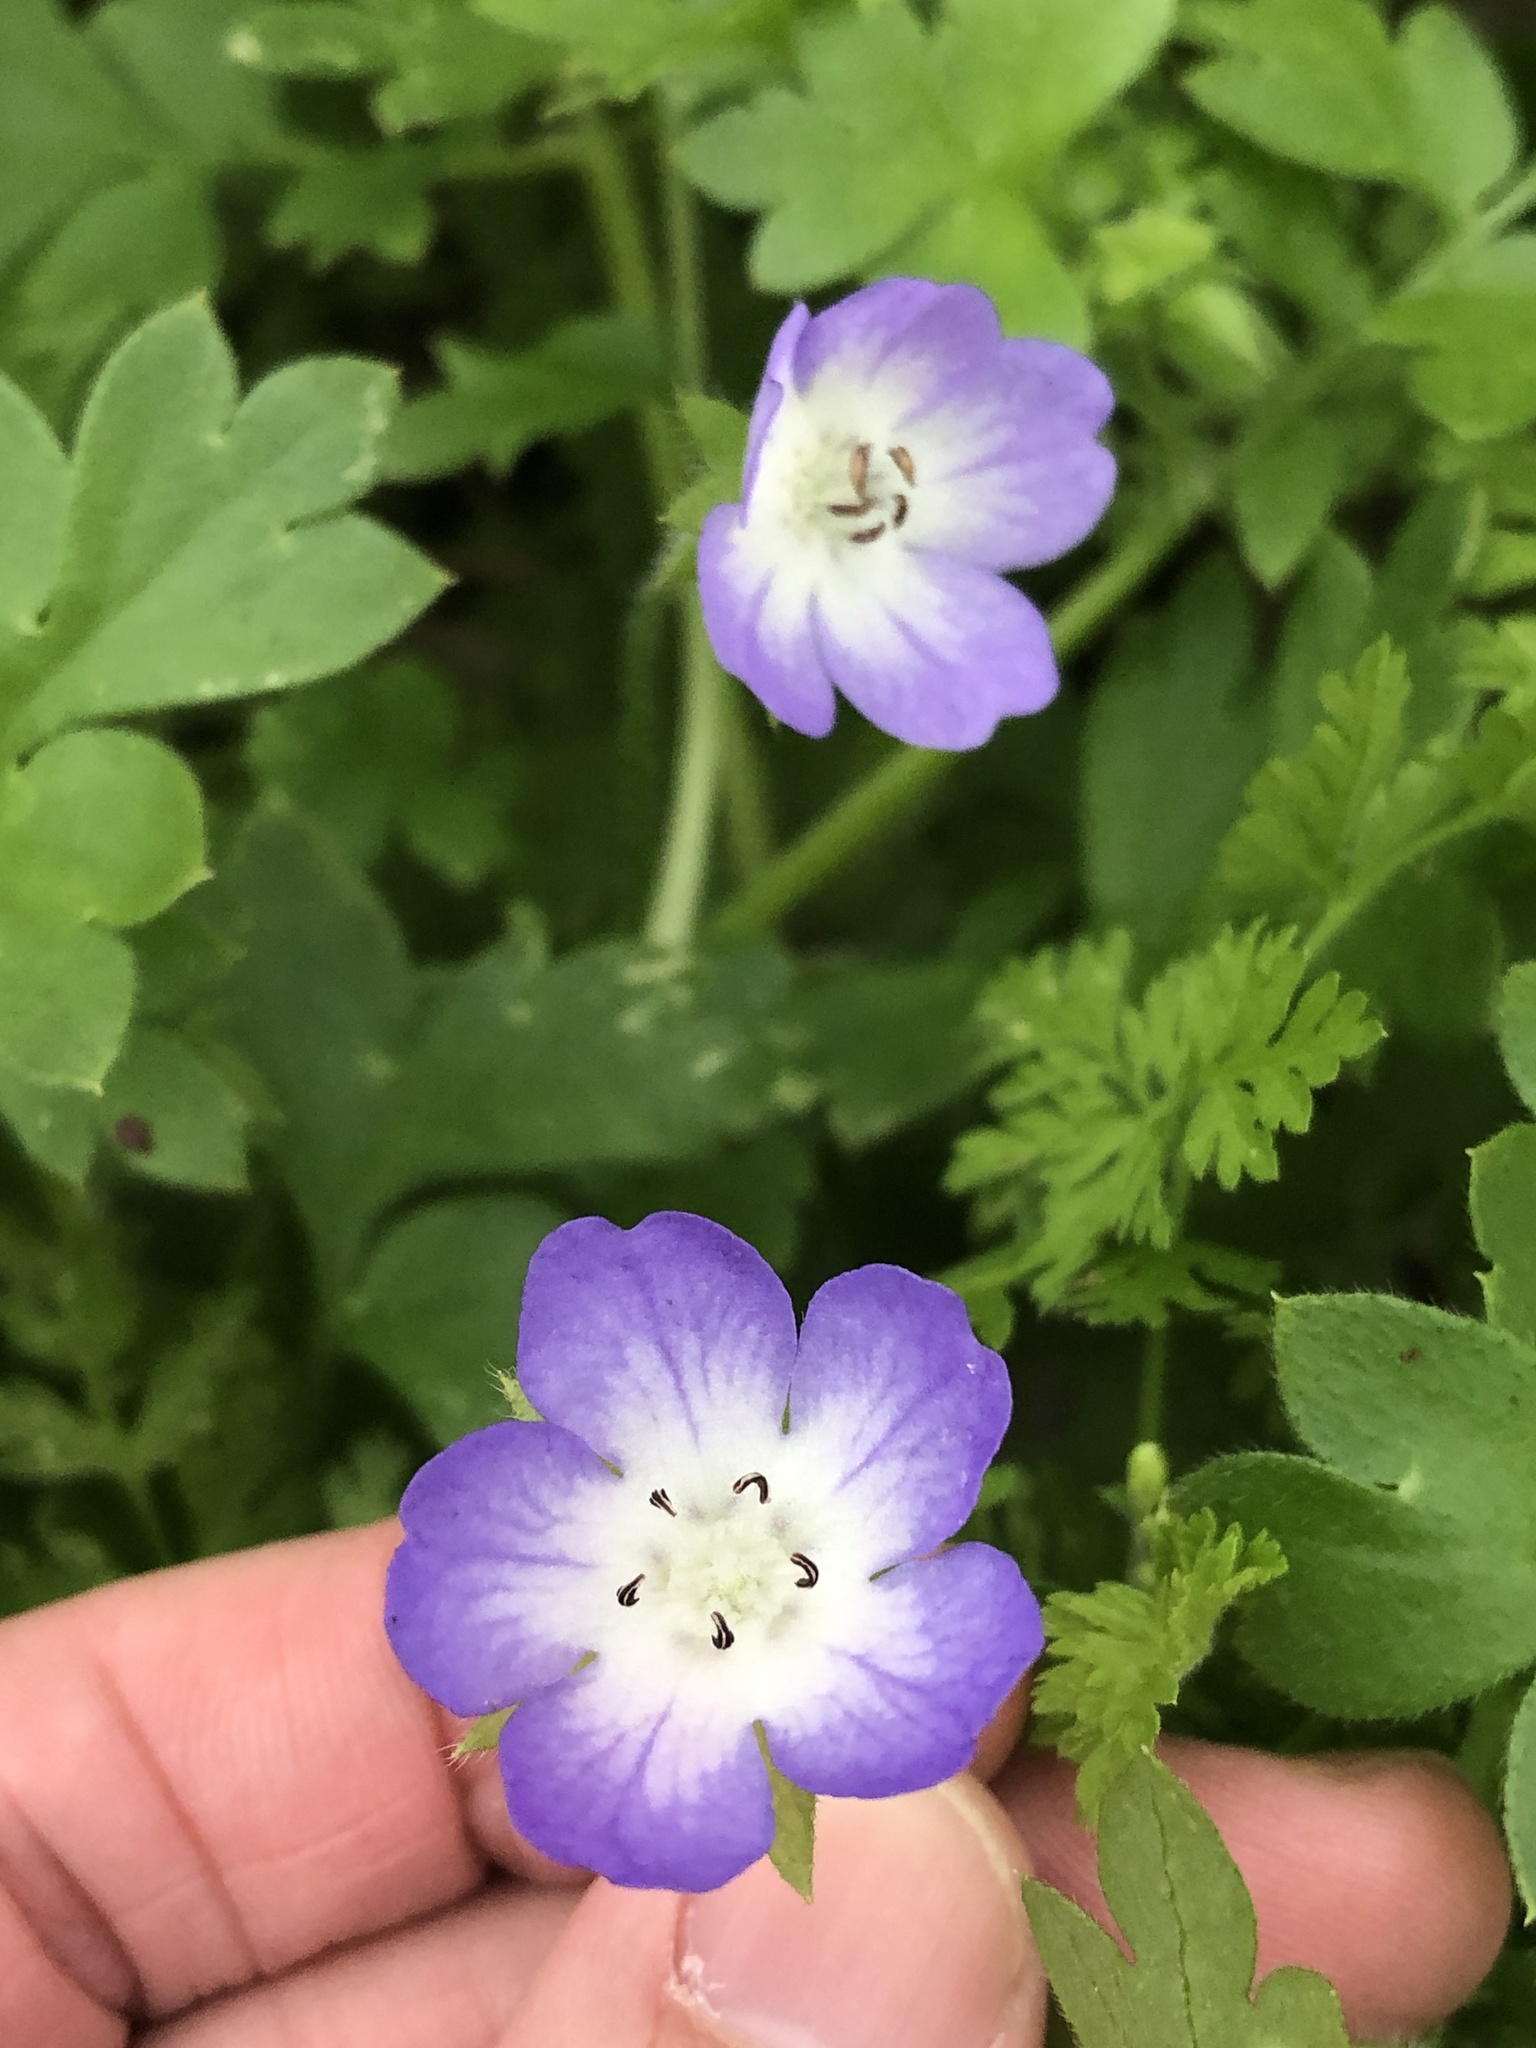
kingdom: Plantae
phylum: Tracheophyta
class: Magnoliopsida
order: Boraginales
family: Hydrophyllaceae
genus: Nemophila
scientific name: Nemophila phacelioides
